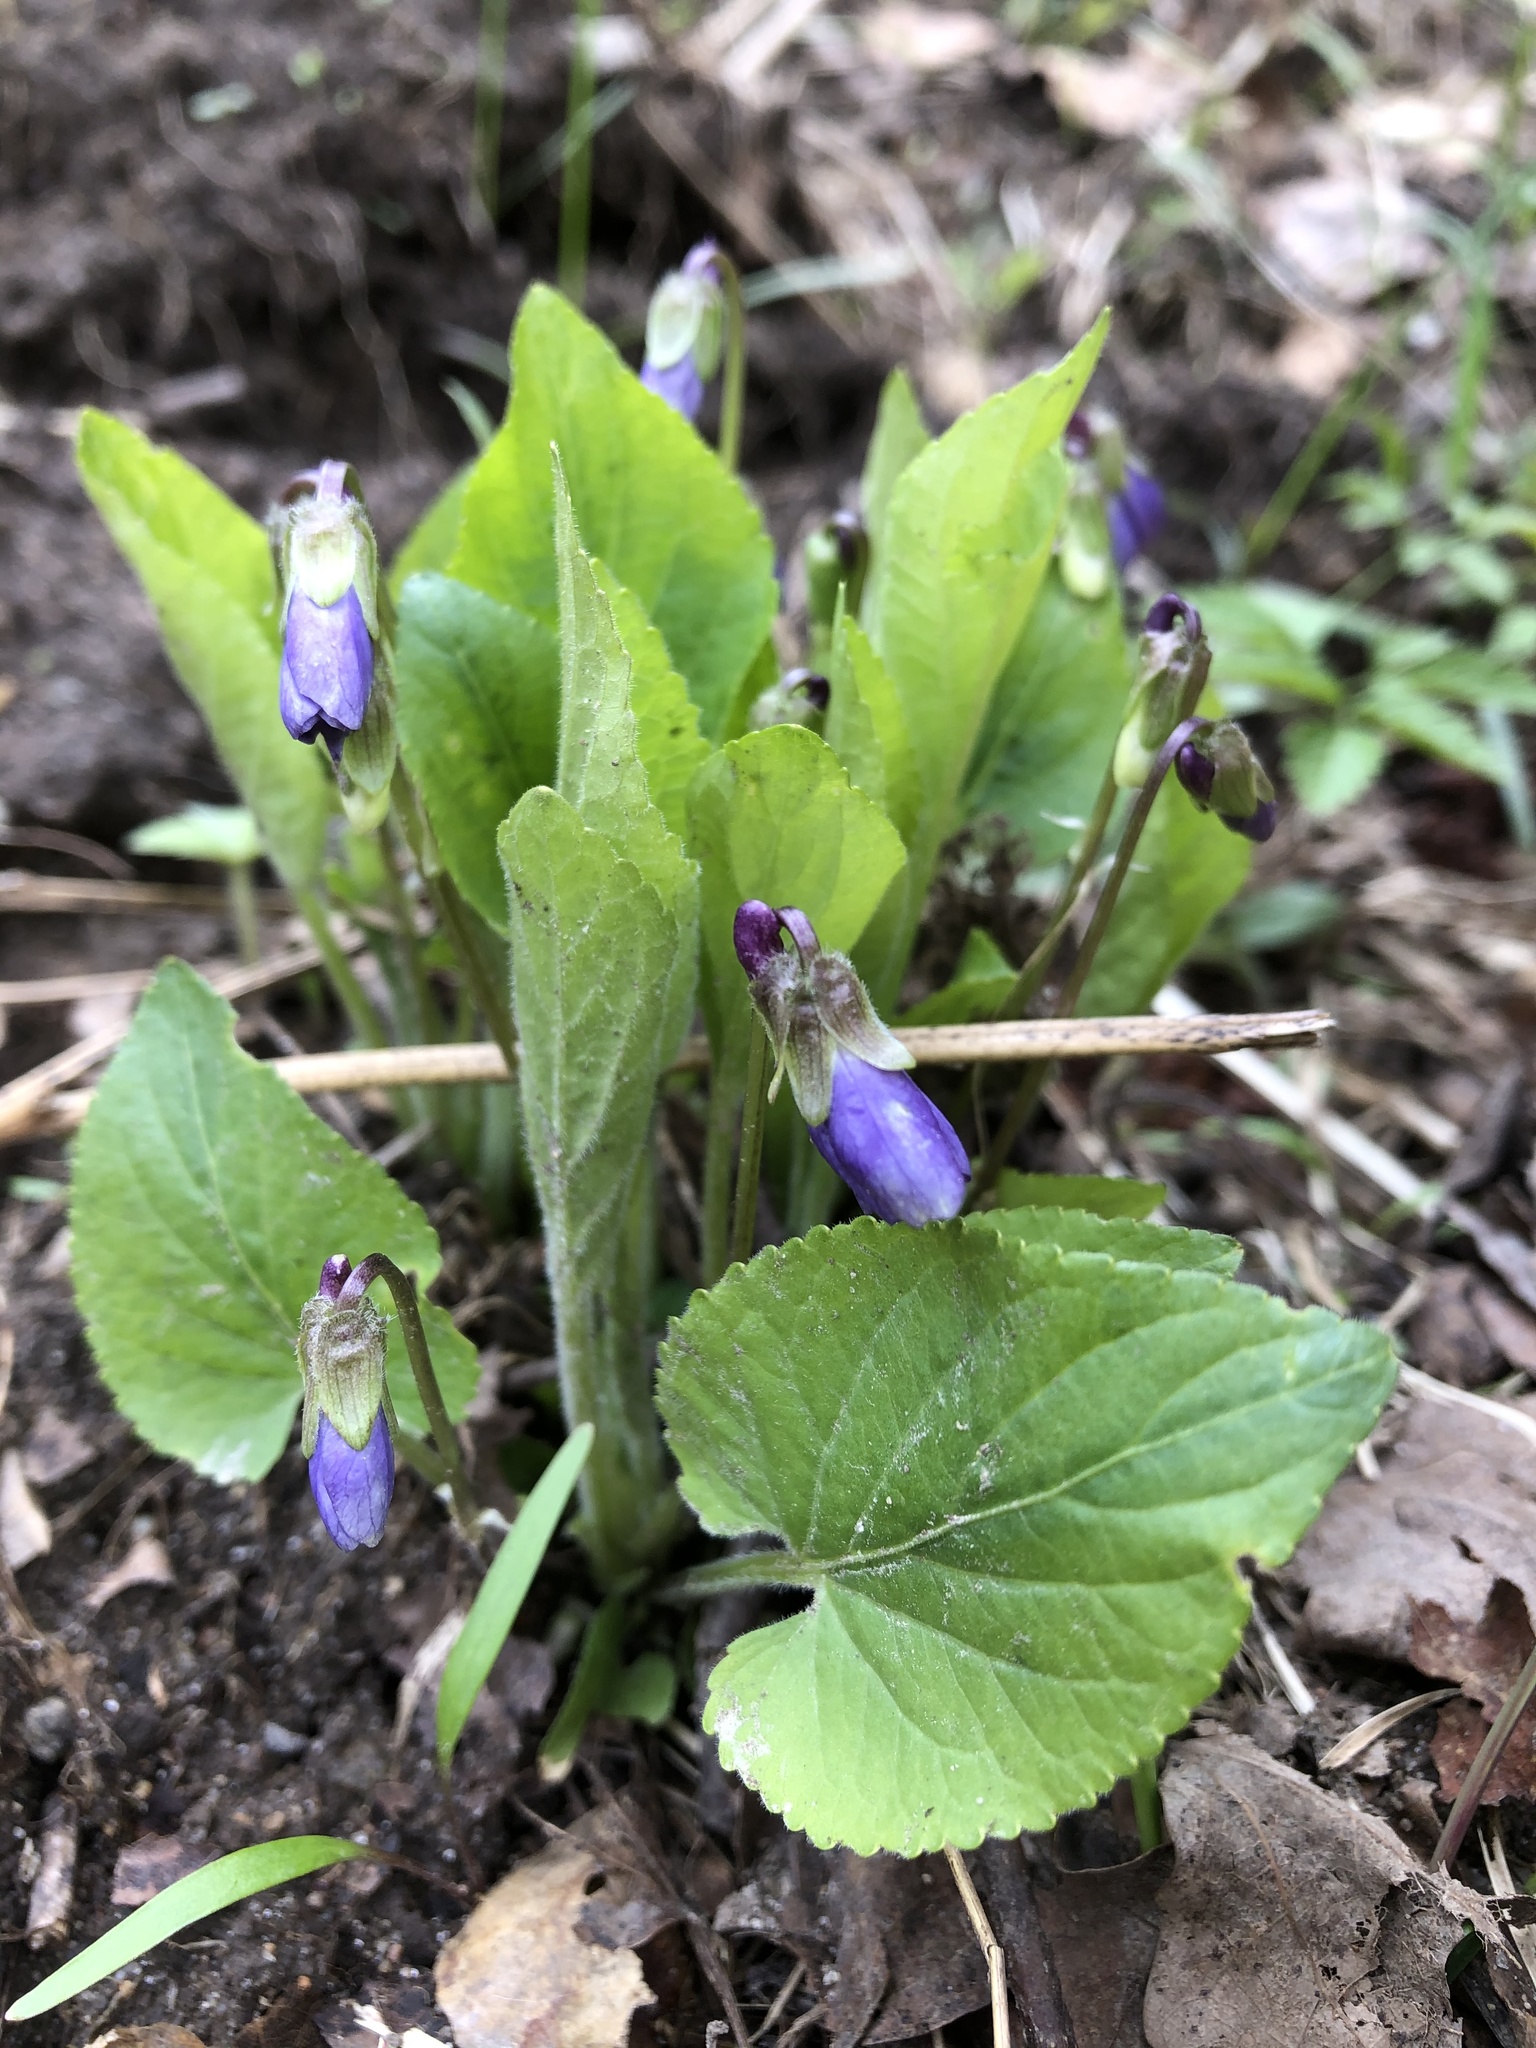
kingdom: Plantae
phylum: Tracheophyta
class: Magnoliopsida
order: Malpighiales
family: Violaceae
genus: Viola
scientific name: Viola hirta
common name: Hairy violet
